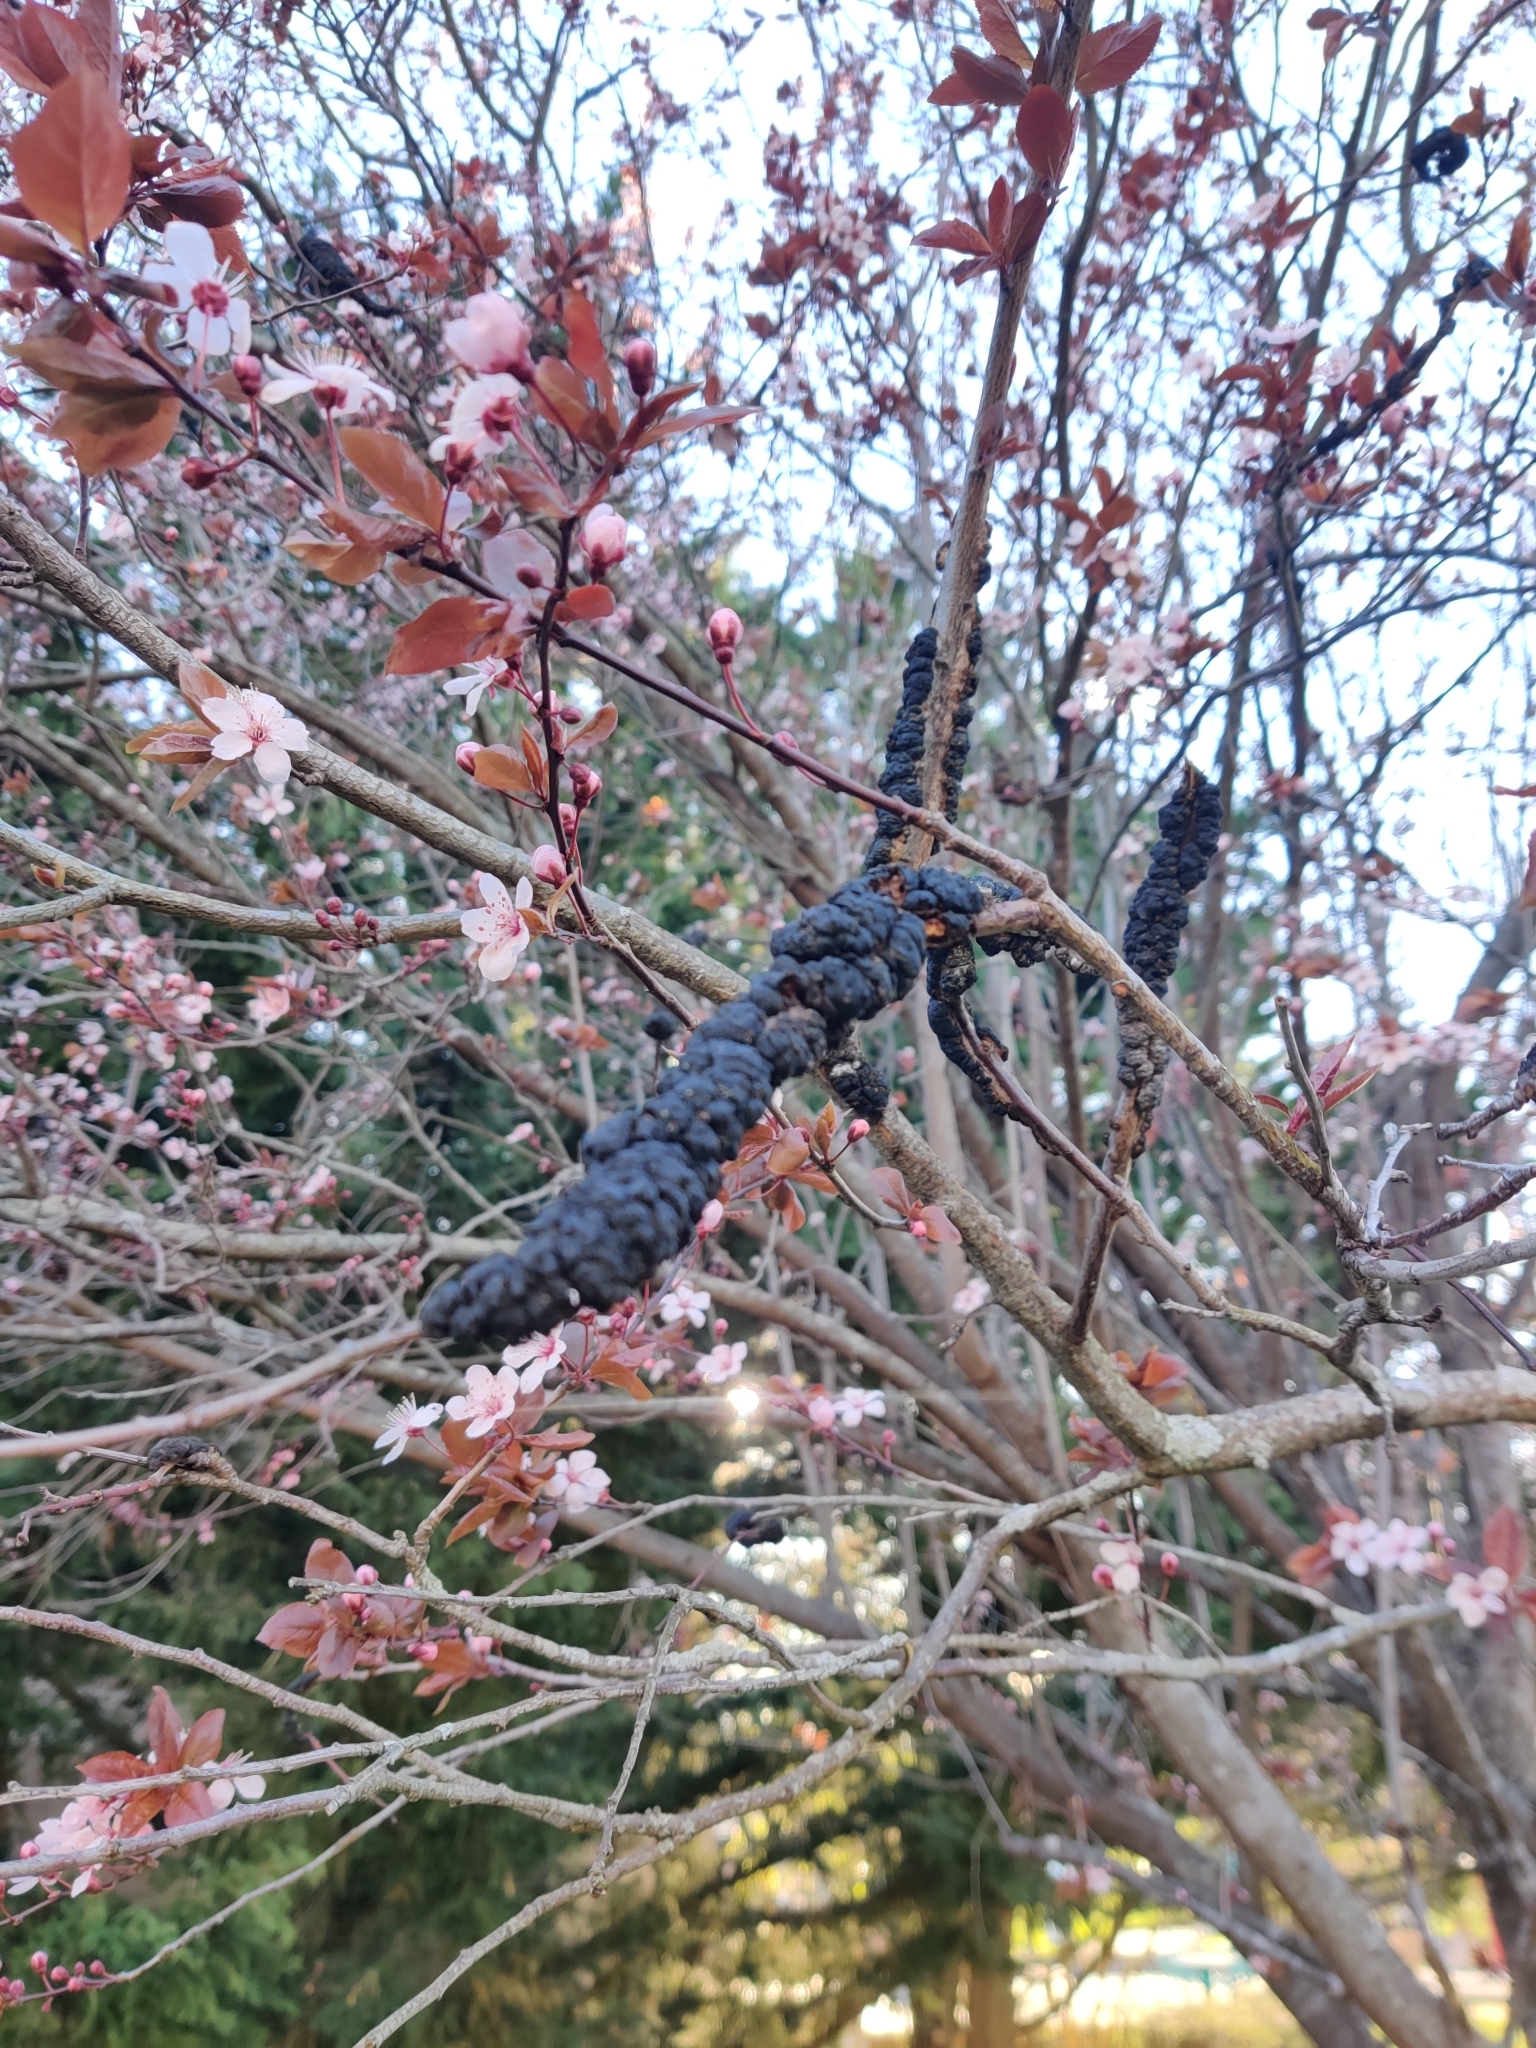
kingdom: Fungi
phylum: Ascomycota
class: Dothideomycetes
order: Venturiales
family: Venturiaceae
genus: Apiosporina
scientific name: Apiosporina morbosa
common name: Black knot
